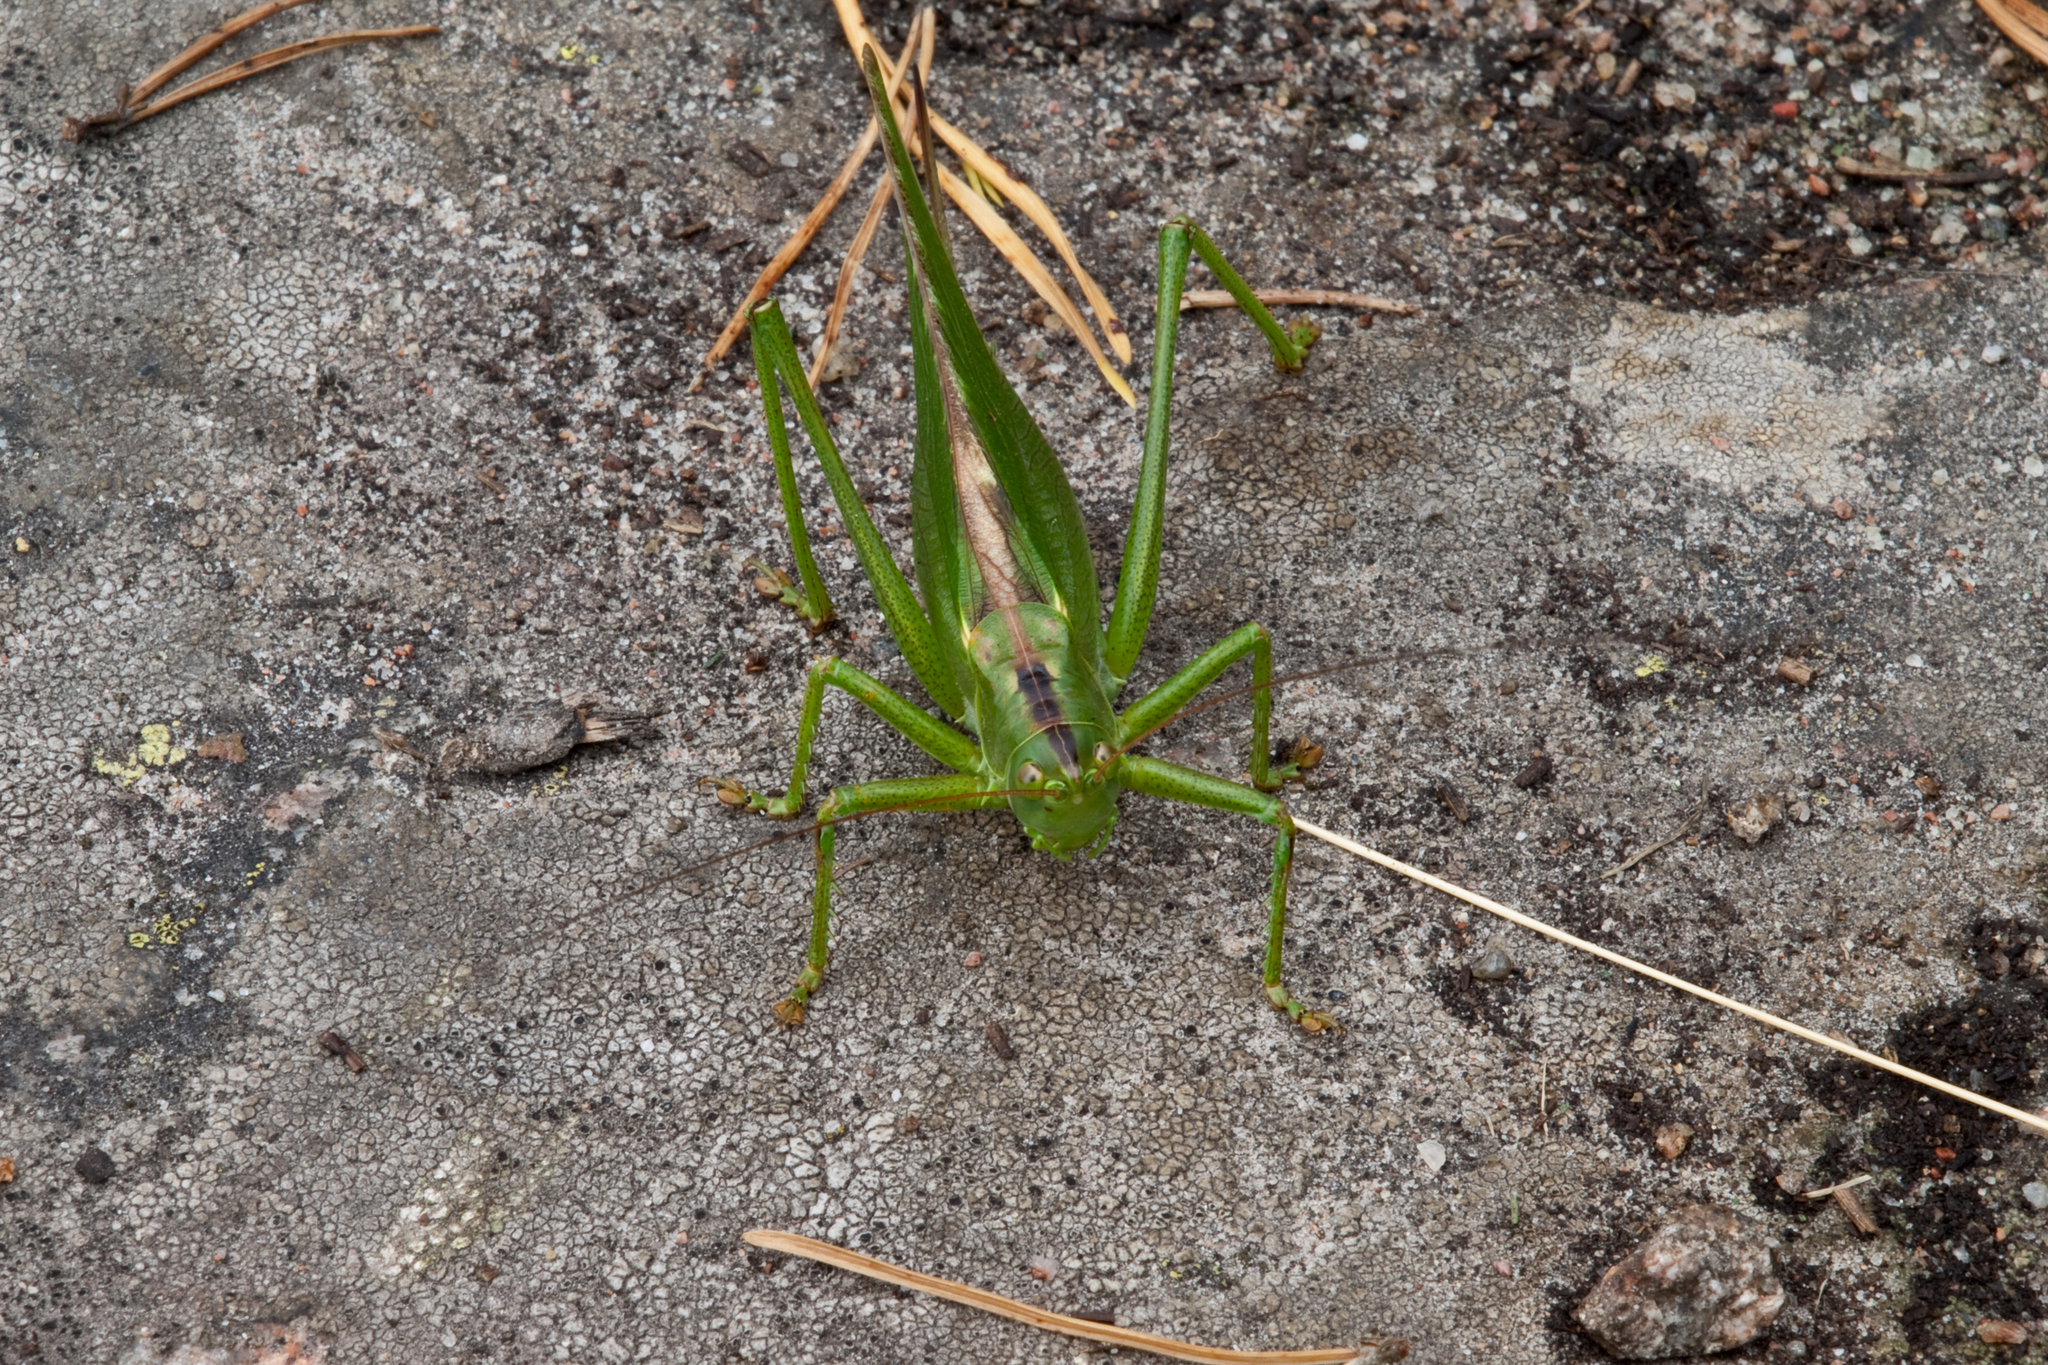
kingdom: Animalia
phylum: Arthropoda
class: Insecta
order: Orthoptera
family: Tettigoniidae
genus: Tettigonia
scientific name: Tettigonia viridissima
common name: Great green bush-cricket
